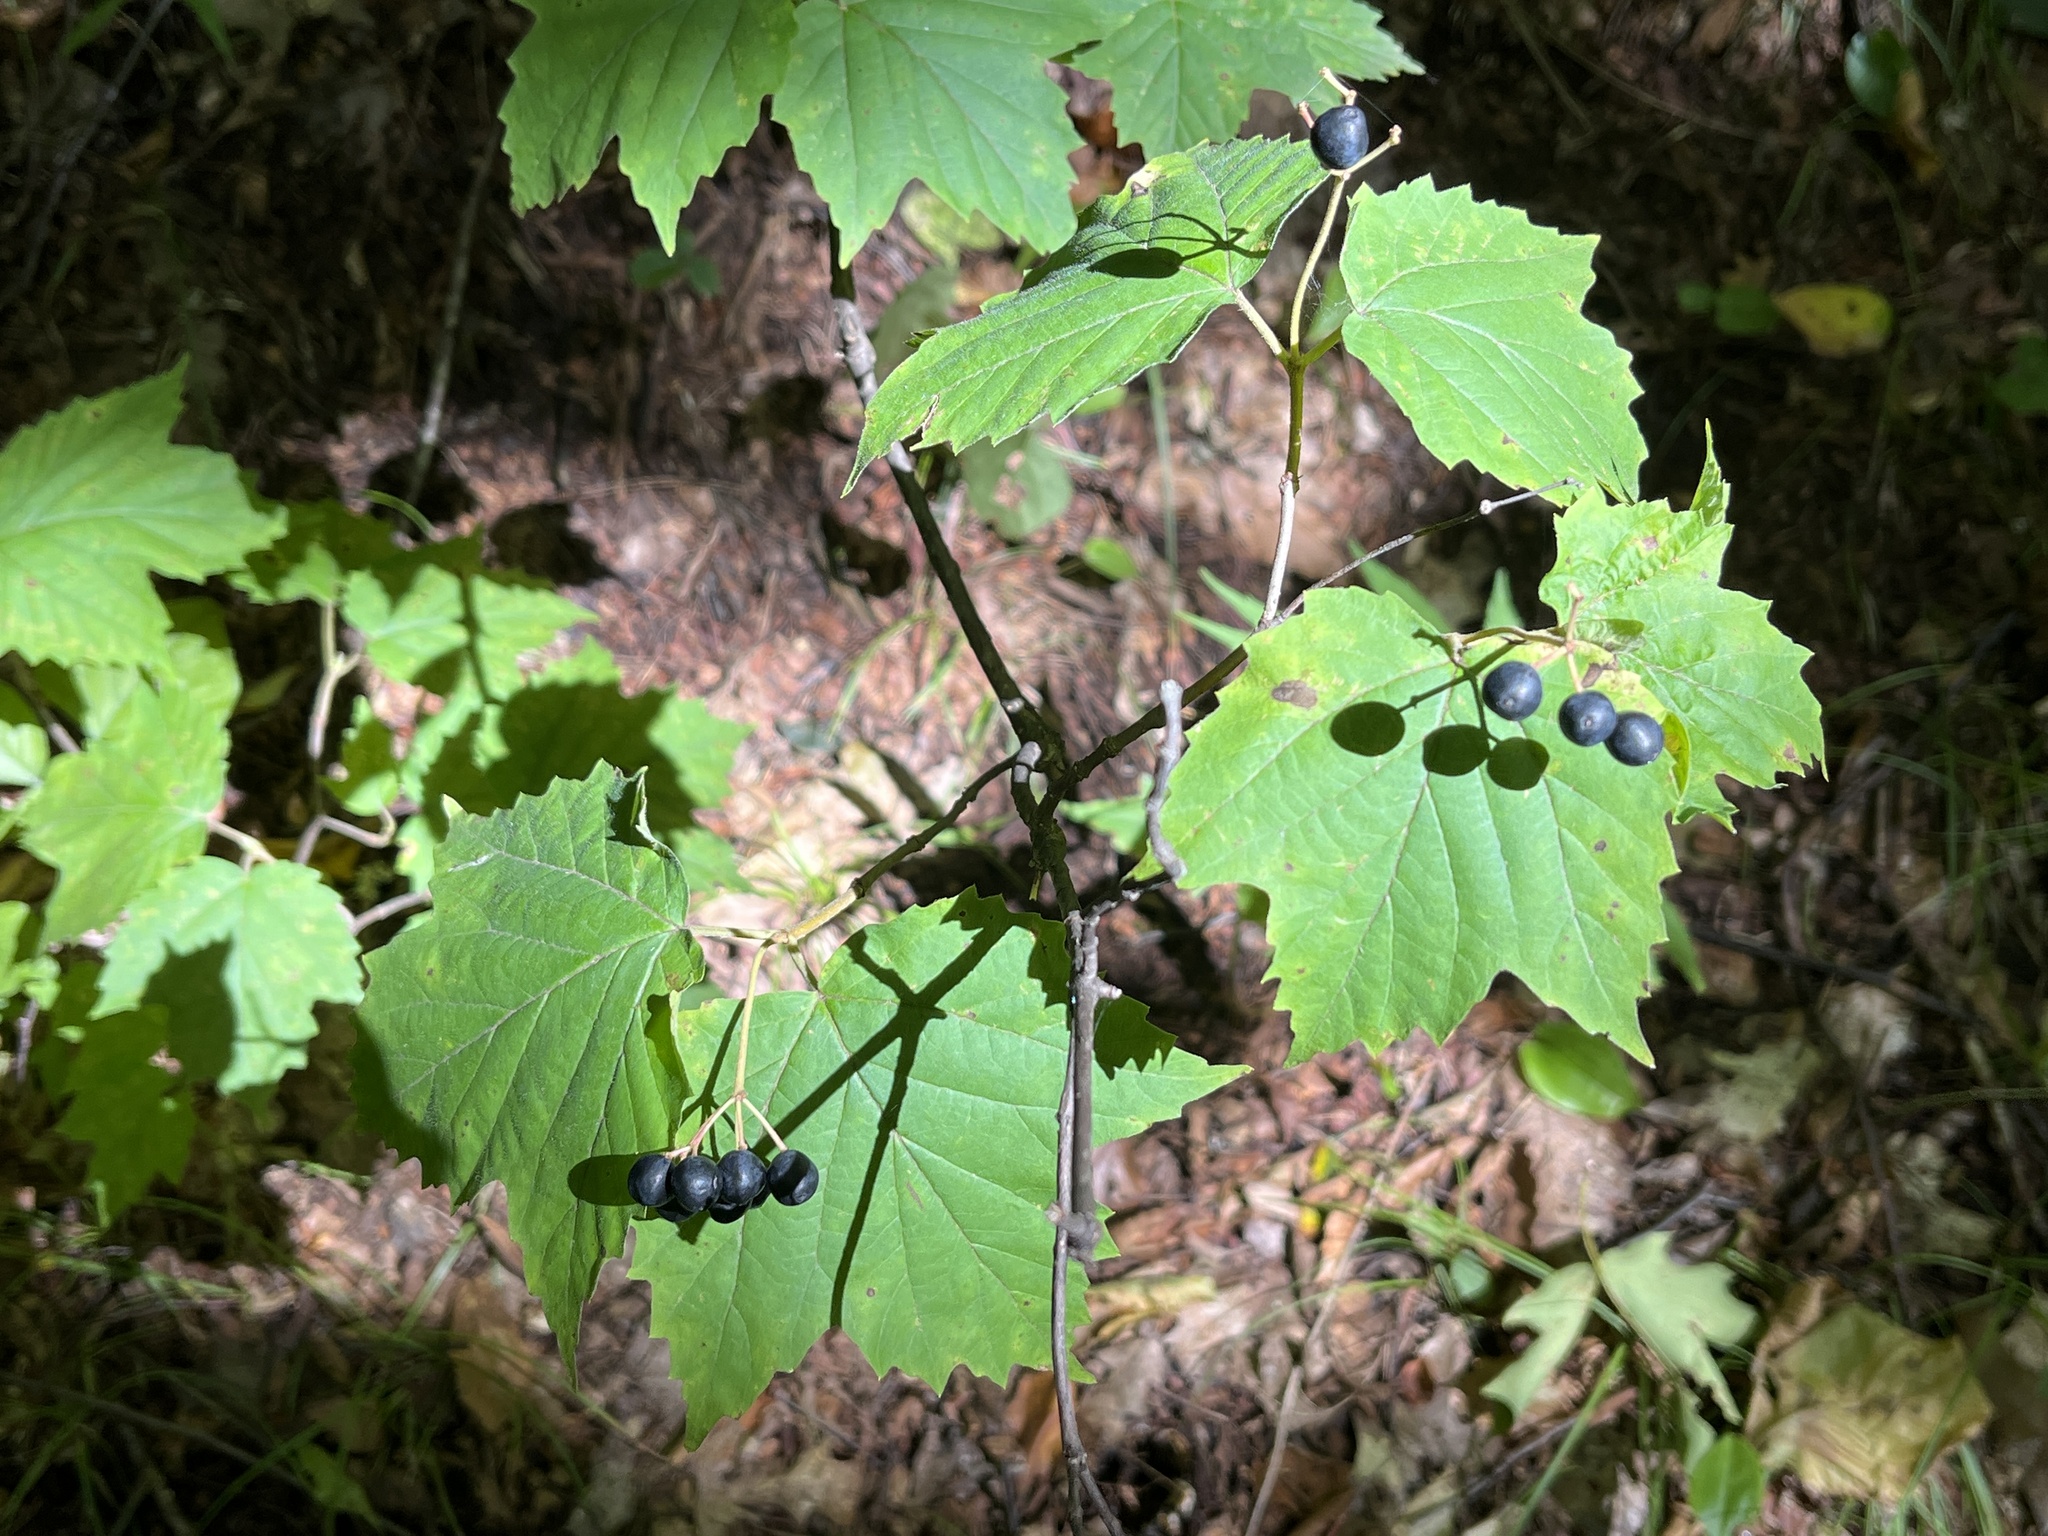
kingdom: Plantae
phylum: Tracheophyta
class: Magnoliopsida
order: Dipsacales
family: Viburnaceae
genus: Viburnum
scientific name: Viburnum acerifolium
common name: Dockmackie
